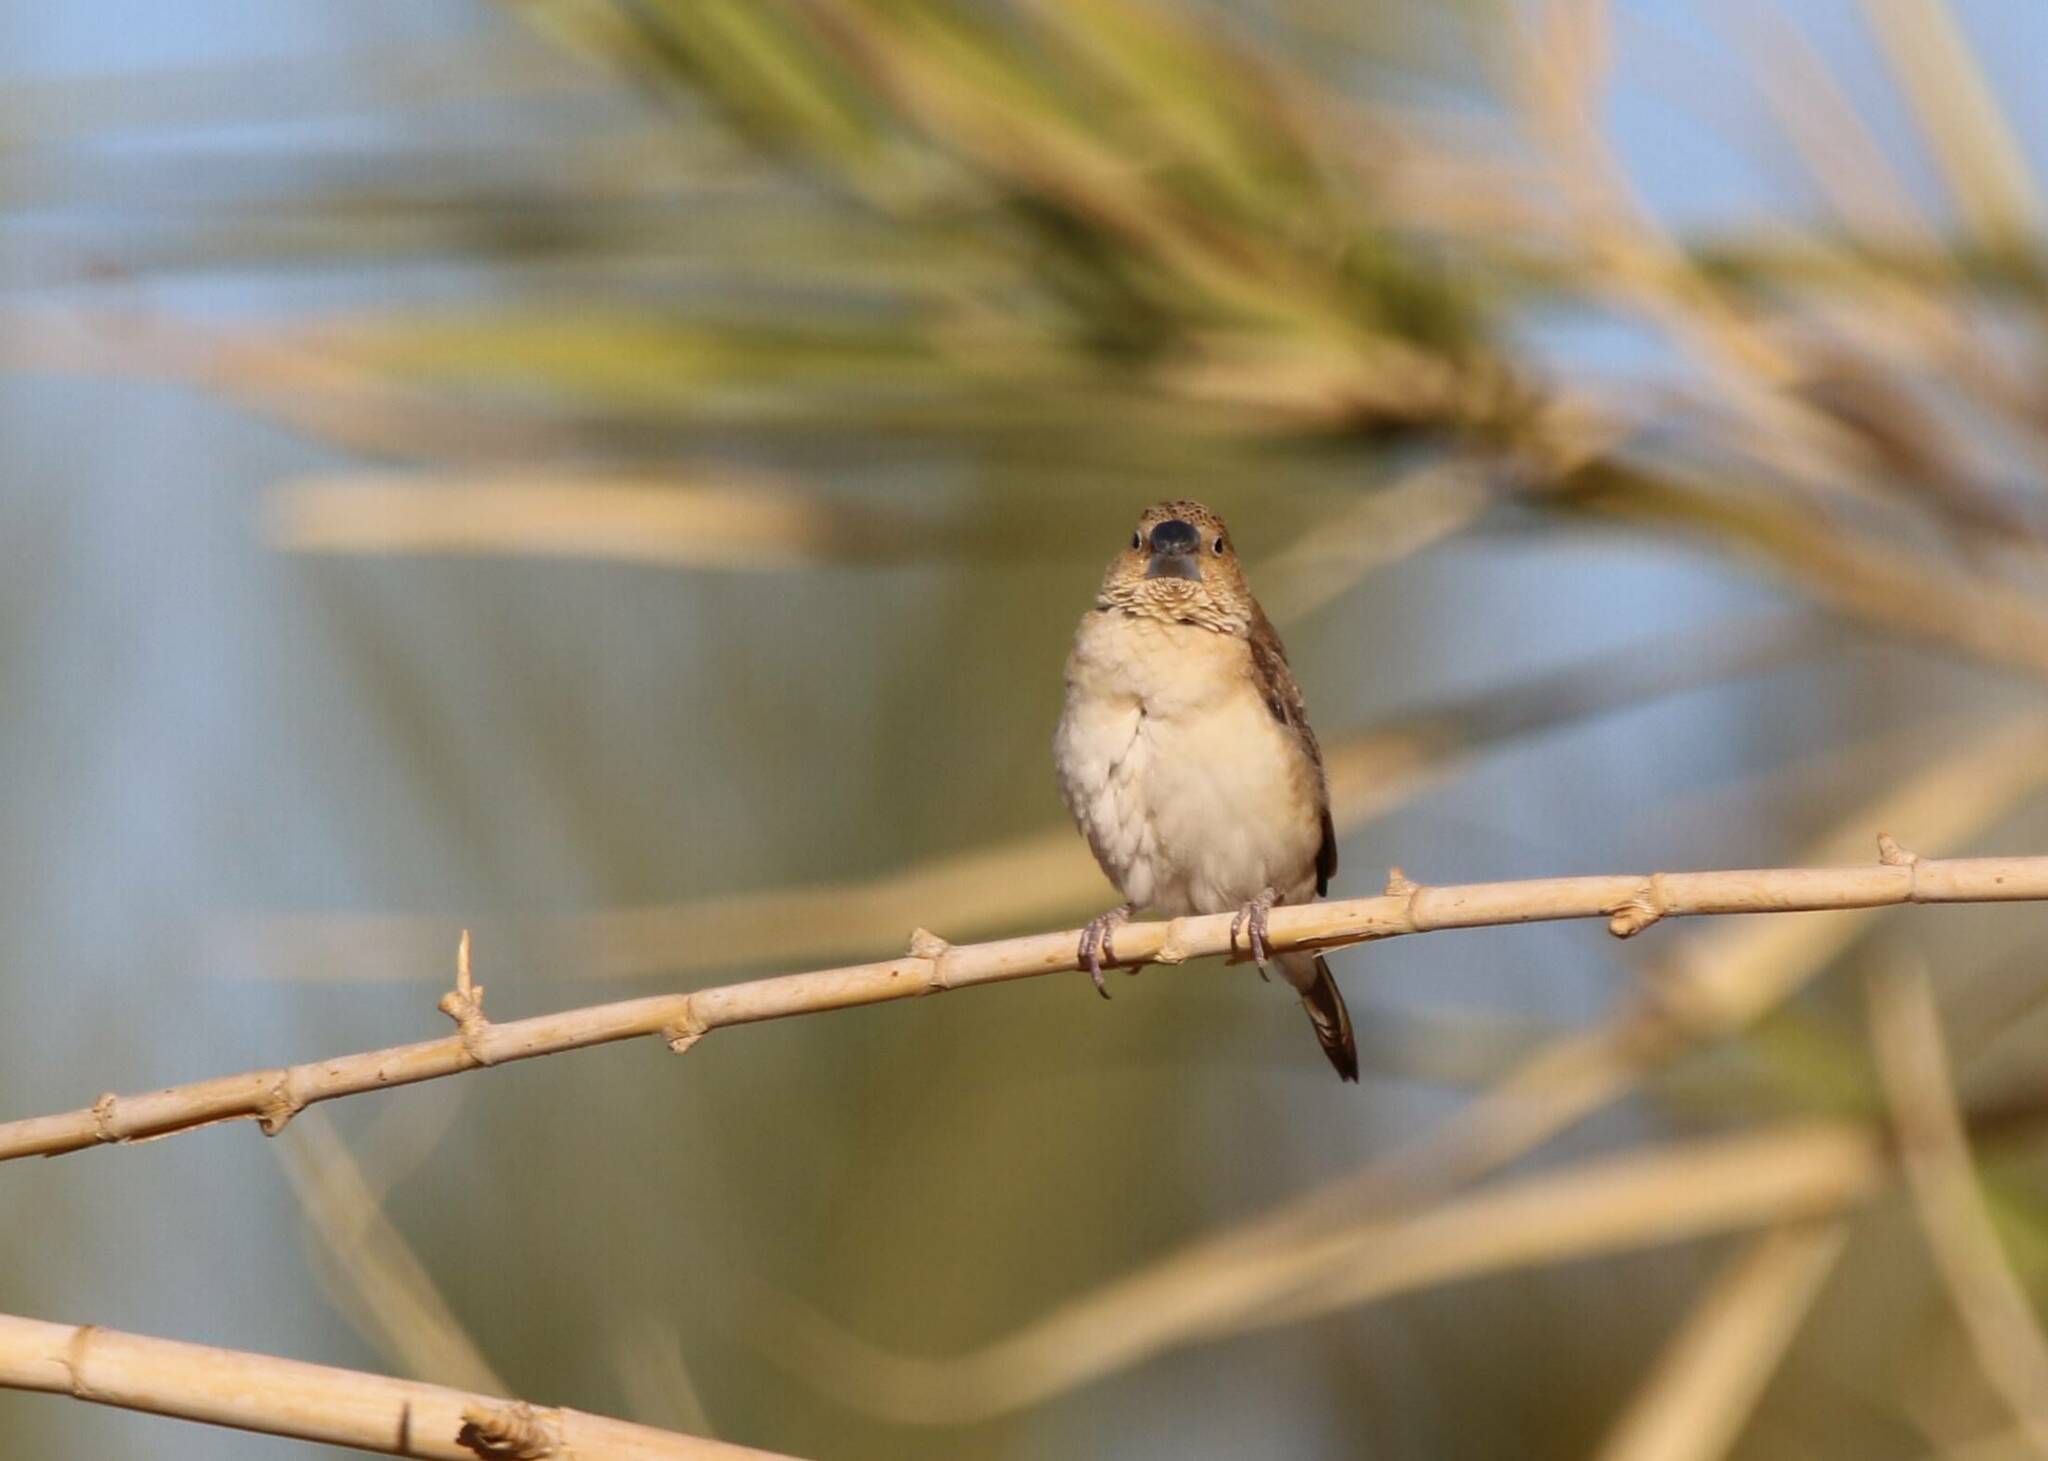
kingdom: Animalia
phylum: Chordata
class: Aves
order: Passeriformes
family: Estrildidae
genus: Euodice
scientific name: Euodice cantans
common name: African silverbill
